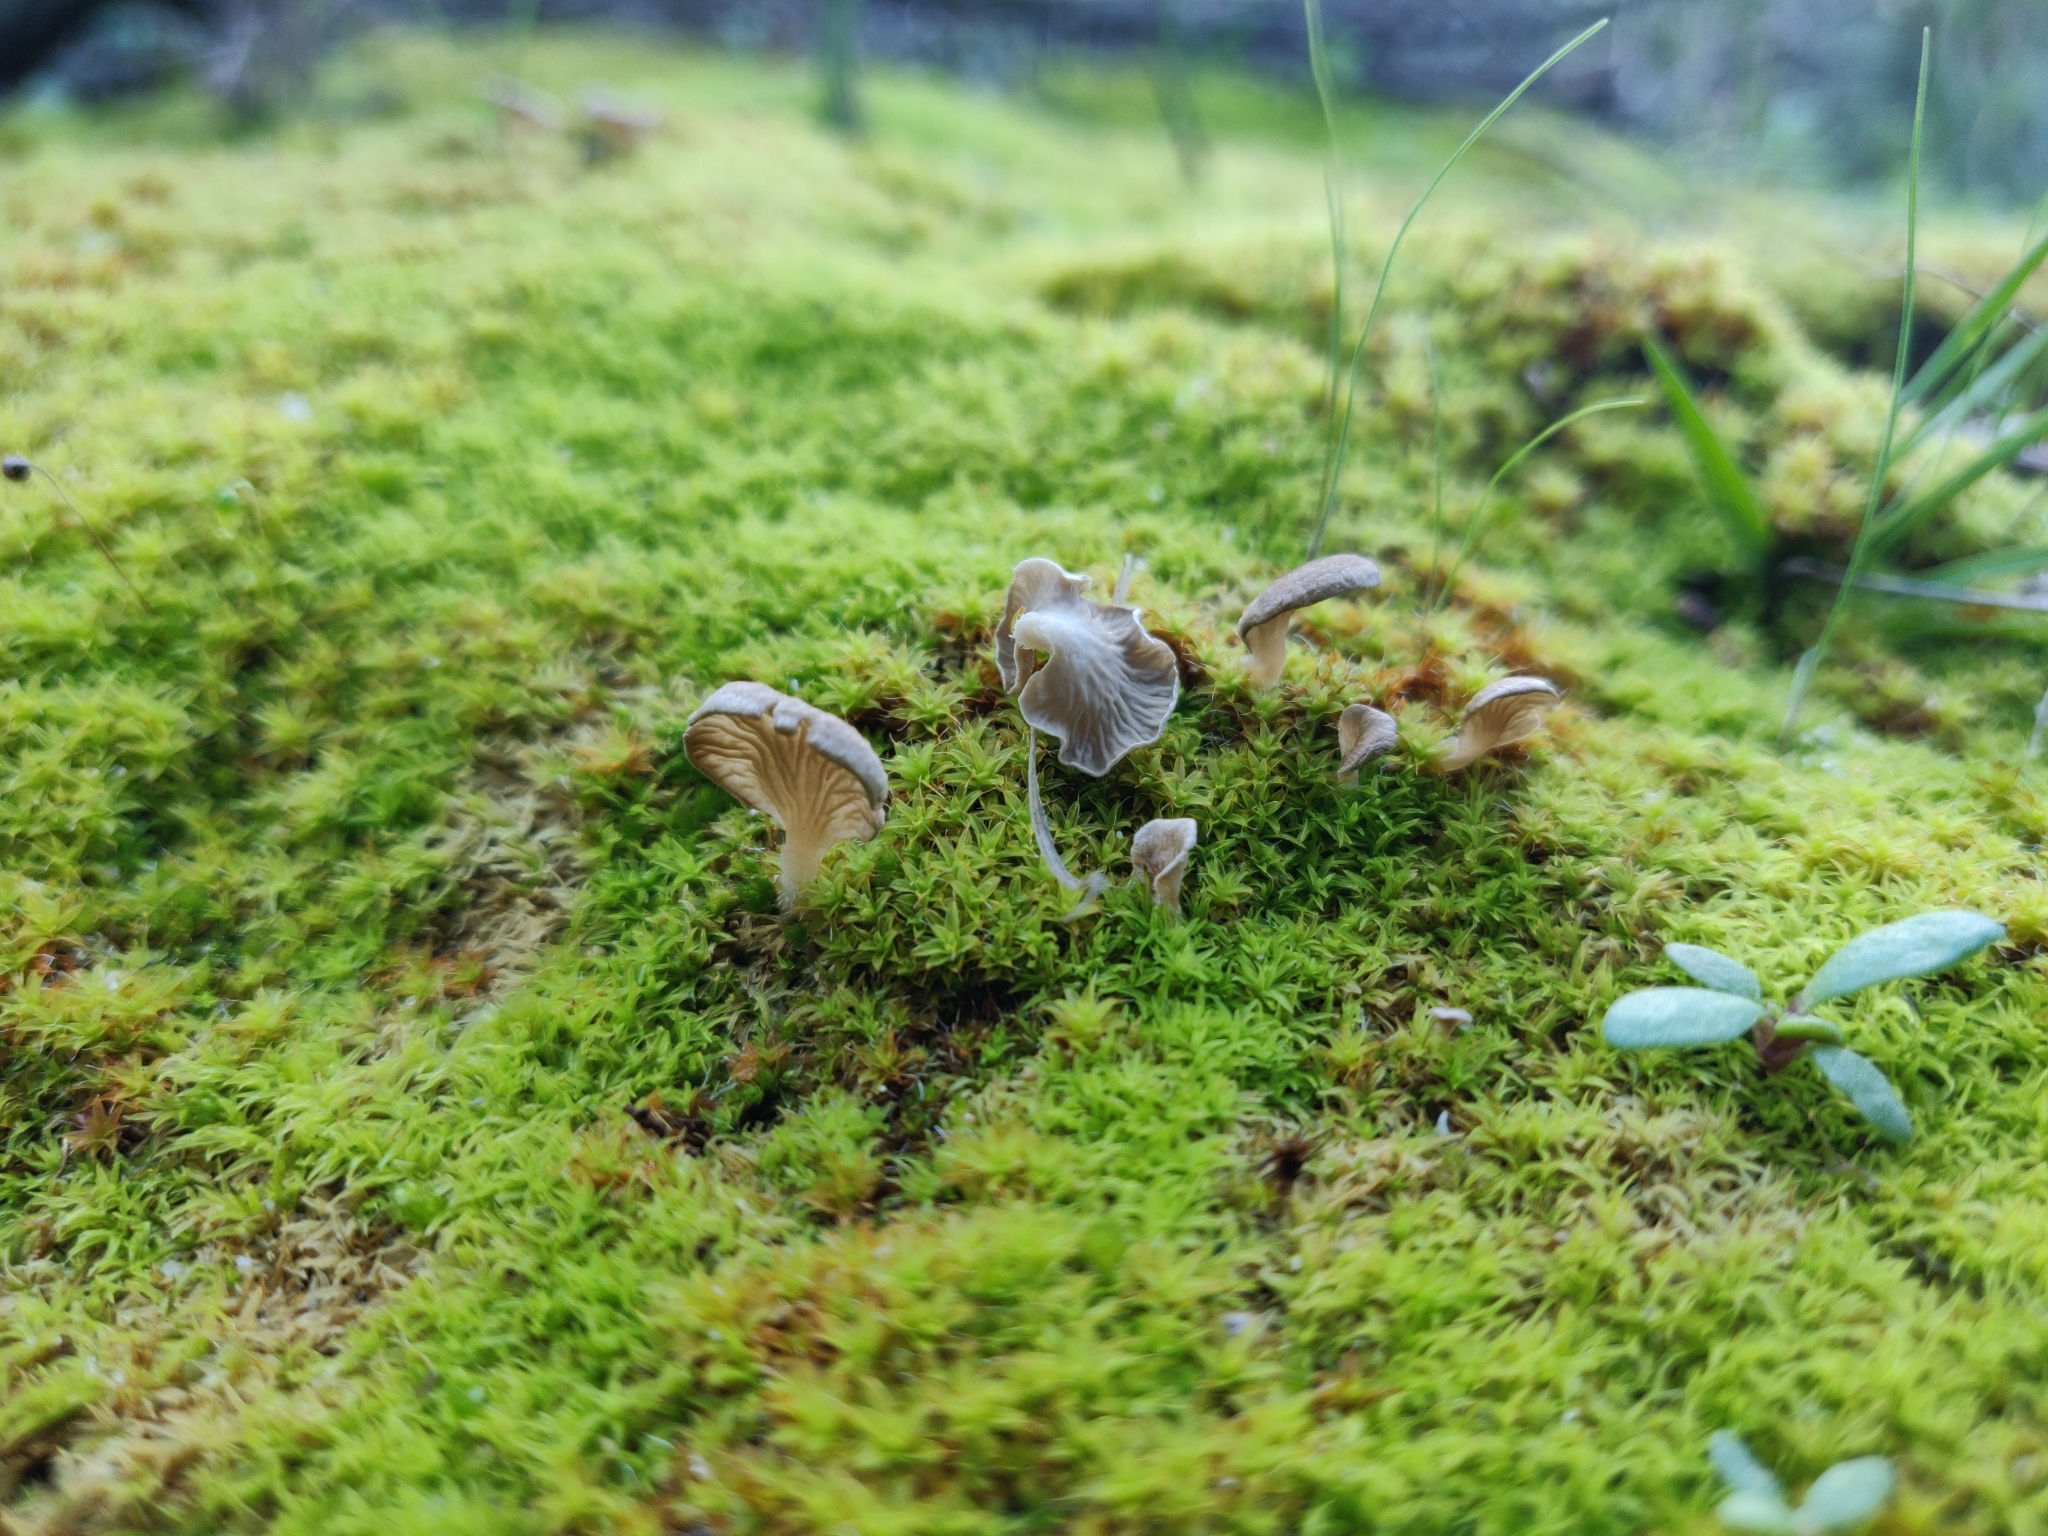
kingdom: Fungi
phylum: Basidiomycota
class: Agaricomycetes
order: Agaricales
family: Hygrophoraceae
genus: Arrhenia
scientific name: Arrhenia spathulata
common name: Spatulate oysterling
